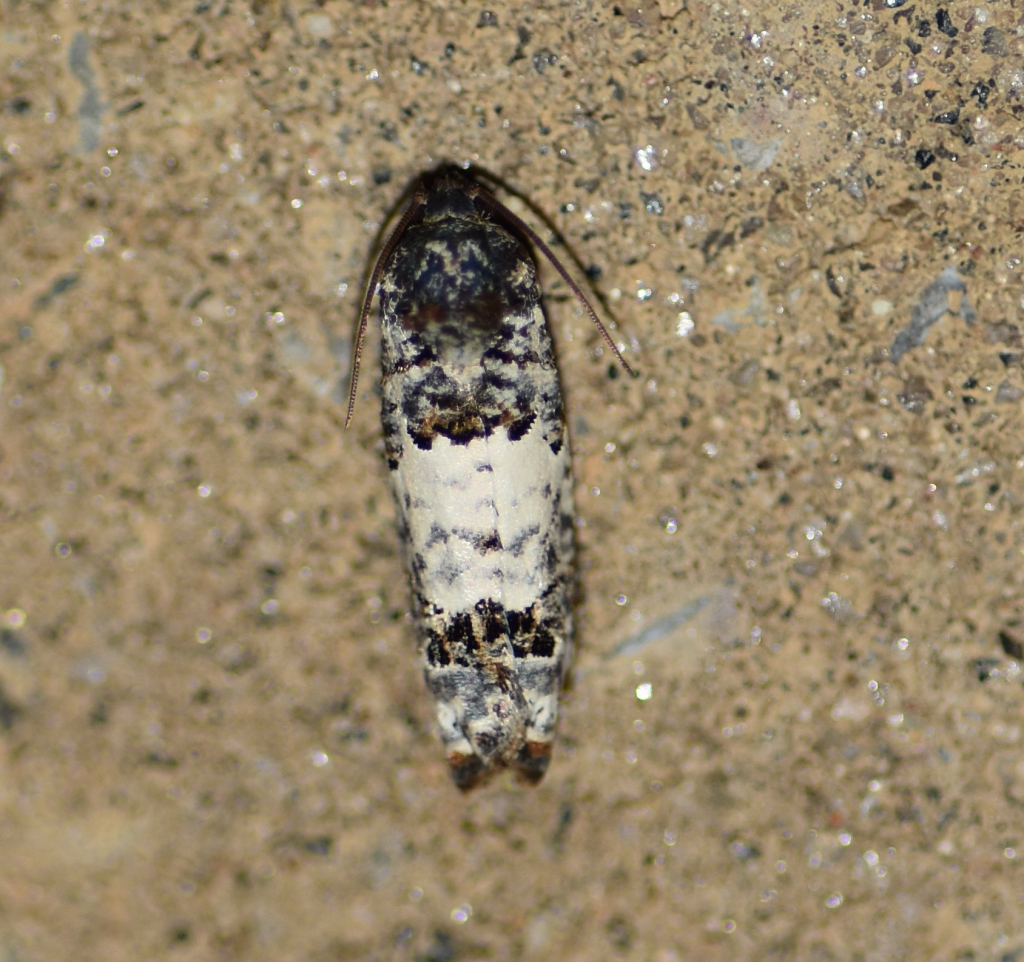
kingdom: Animalia
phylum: Arthropoda
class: Insecta
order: Lepidoptera
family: Tortricidae
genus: Epiblema
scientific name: Epiblema carolinana
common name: Gray-blotched epiblema moth
